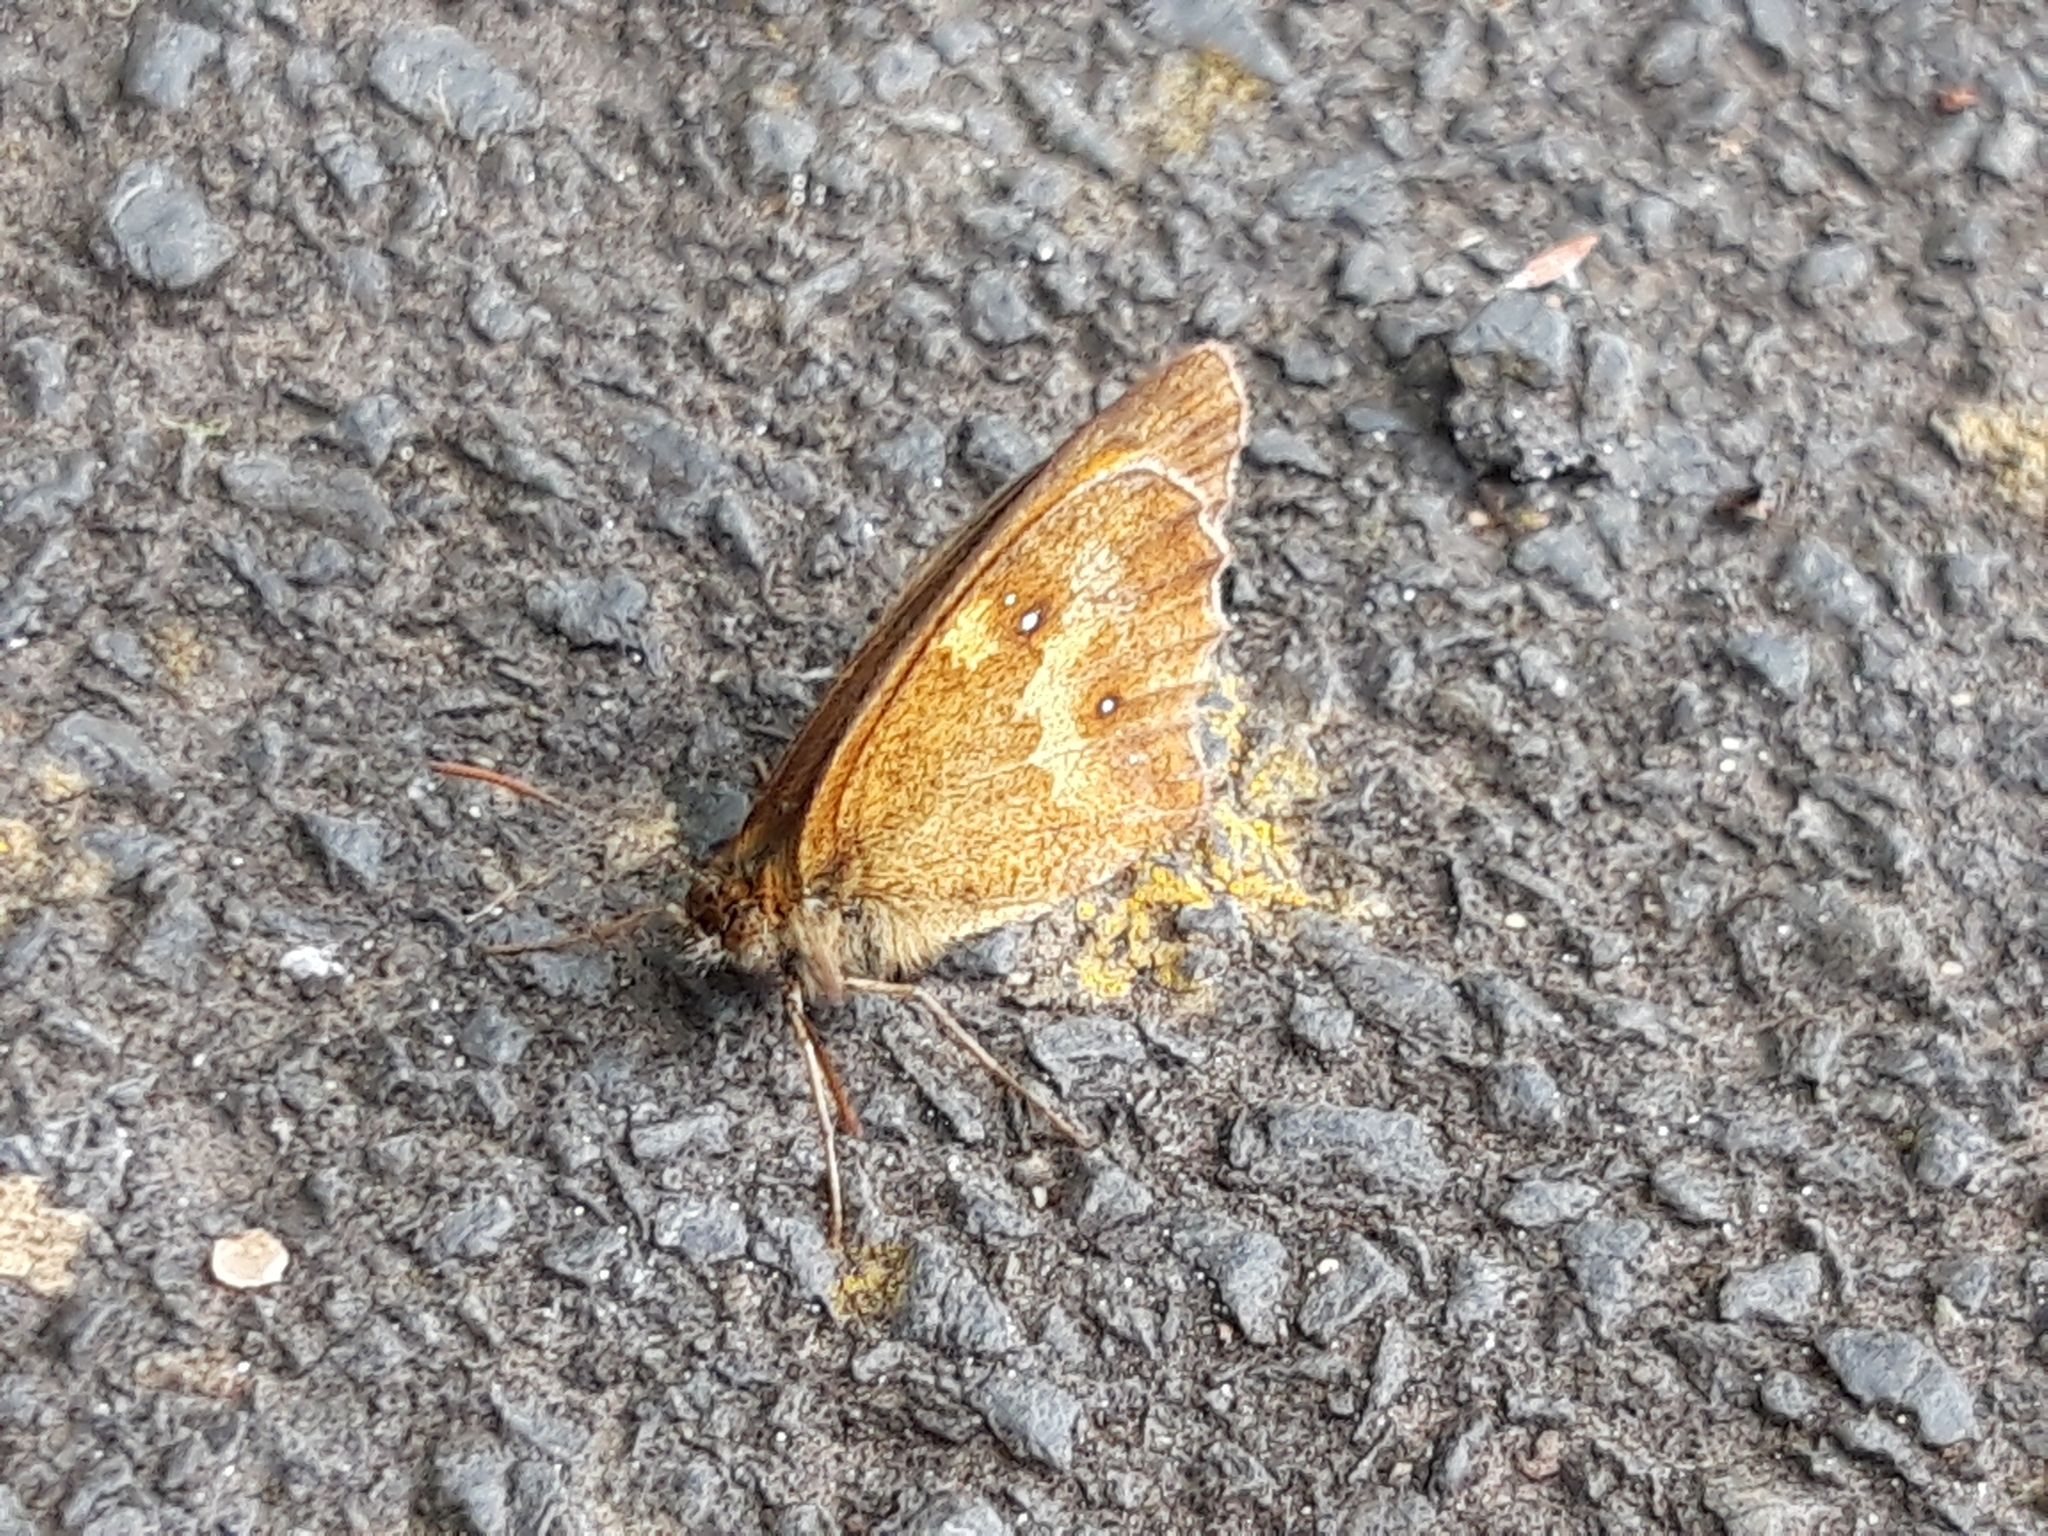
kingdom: Animalia
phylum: Arthropoda
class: Insecta
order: Lepidoptera
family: Nymphalidae
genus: Pyronia
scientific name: Pyronia tithonus
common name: Gatekeeper
